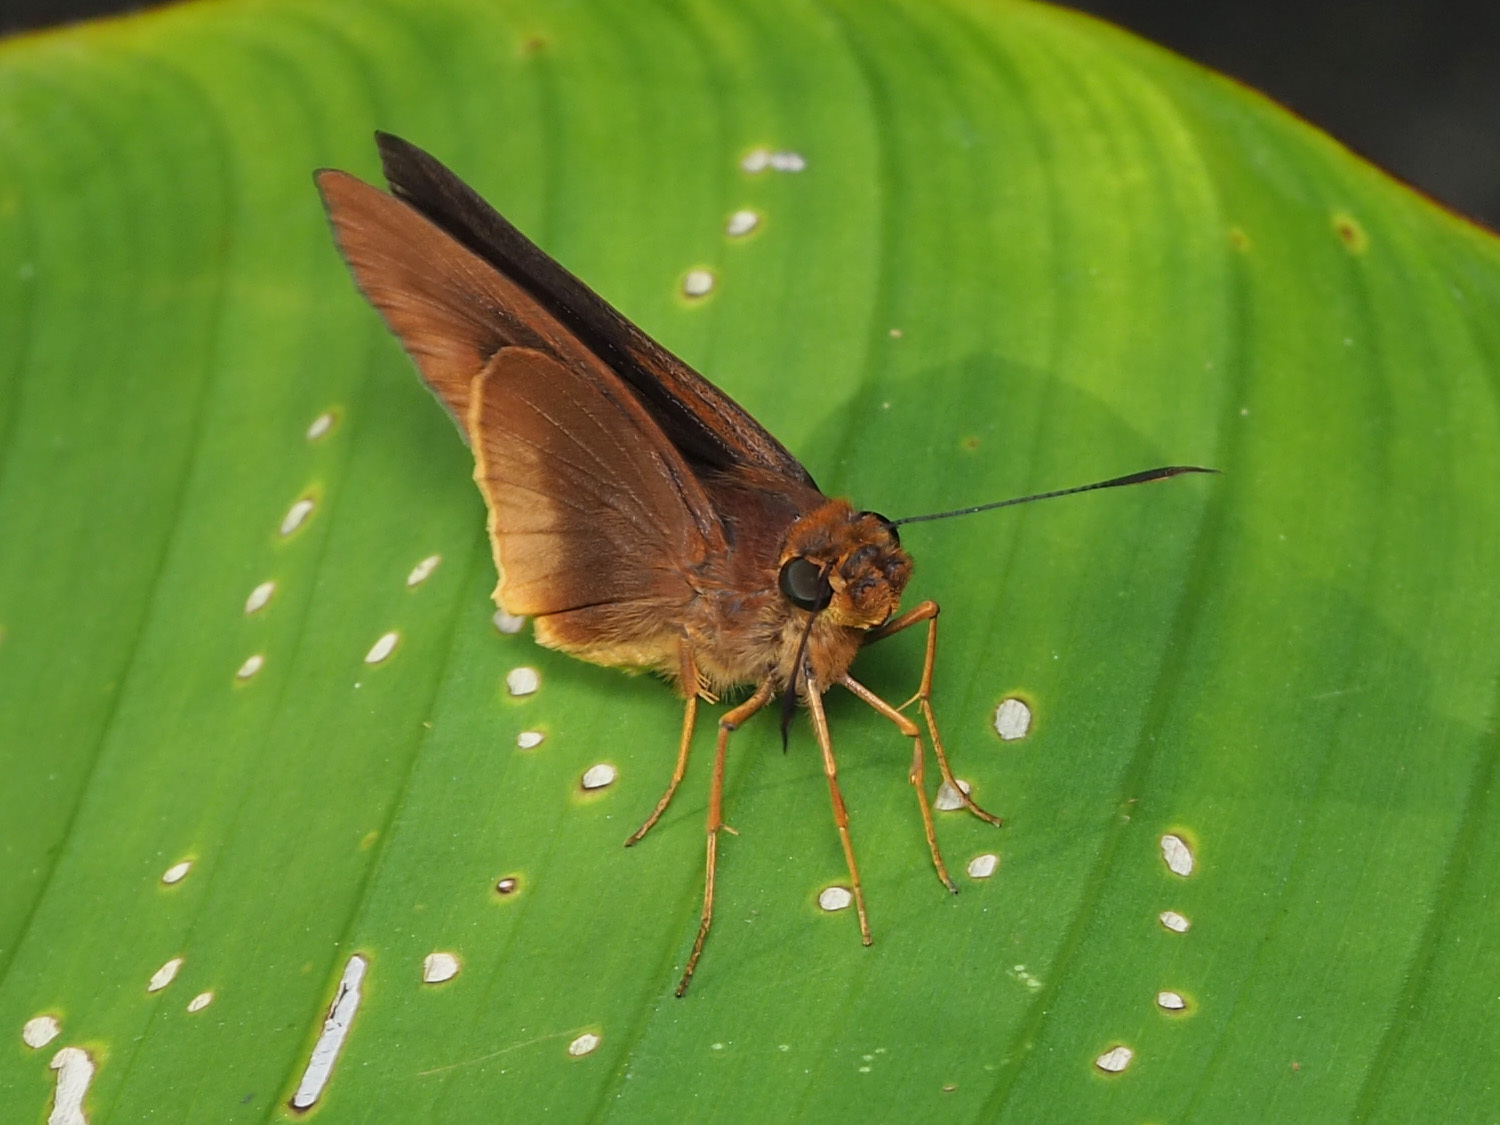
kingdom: Animalia
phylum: Arthropoda
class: Insecta
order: Lepidoptera
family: Hesperiidae
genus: Tromba
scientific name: Tromba xanthura
